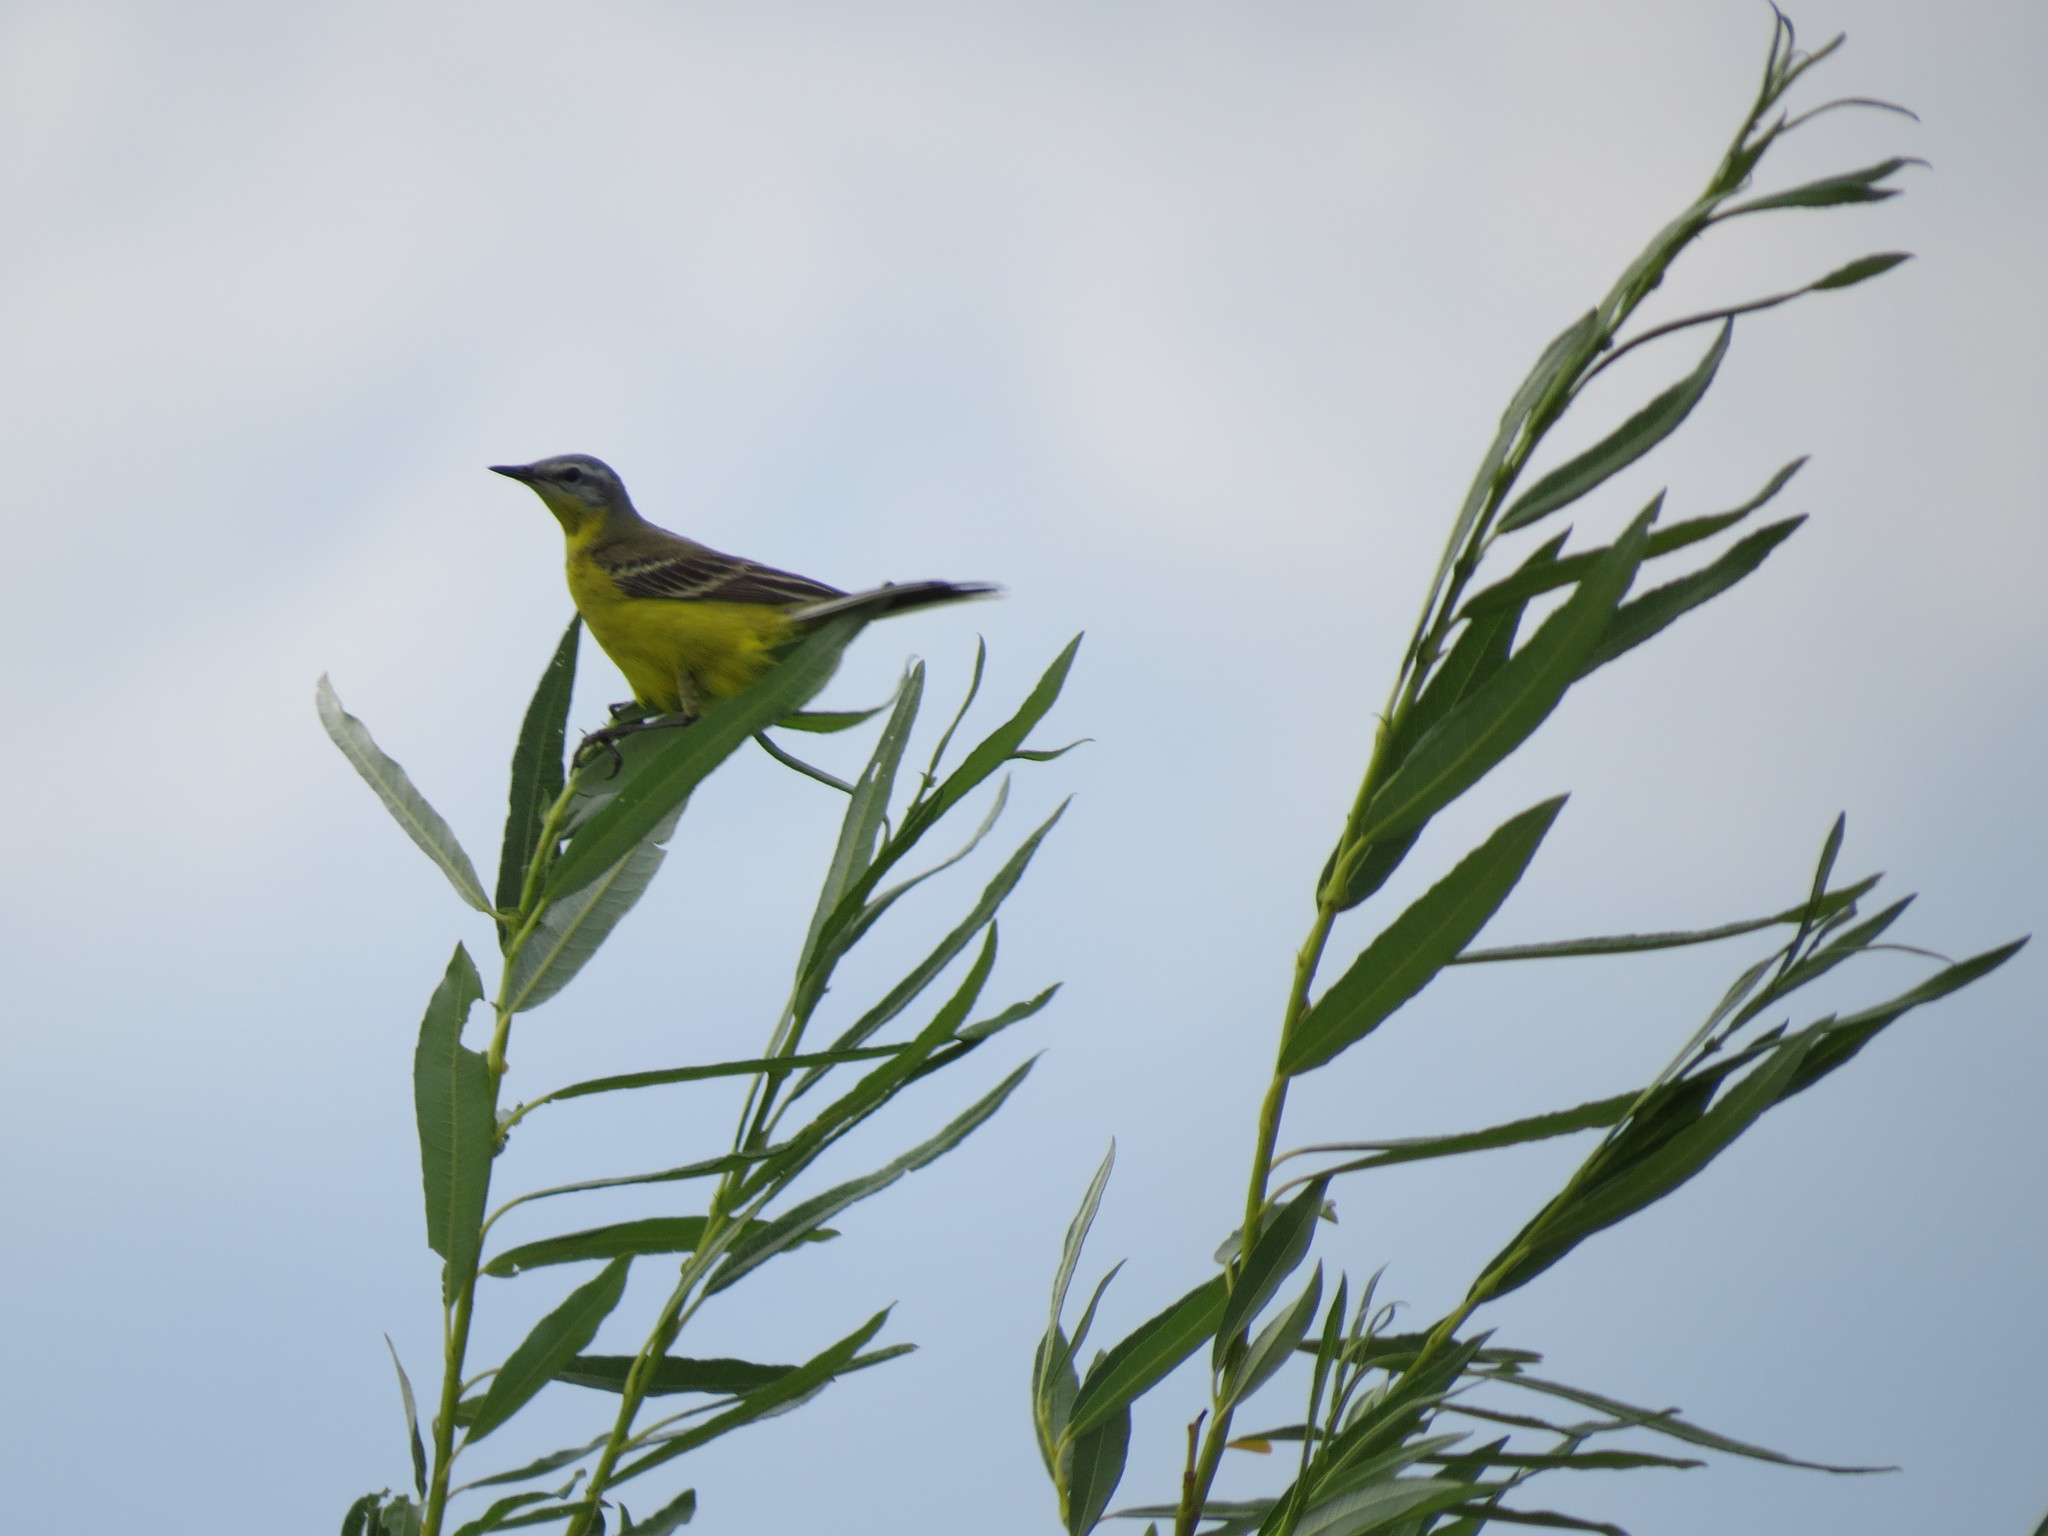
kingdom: Animalia
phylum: Chordata
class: Aves
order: Passeriformes
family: Motacillidae
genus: Motacilla
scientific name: Motacilla flava
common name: Western yellow wagtail
